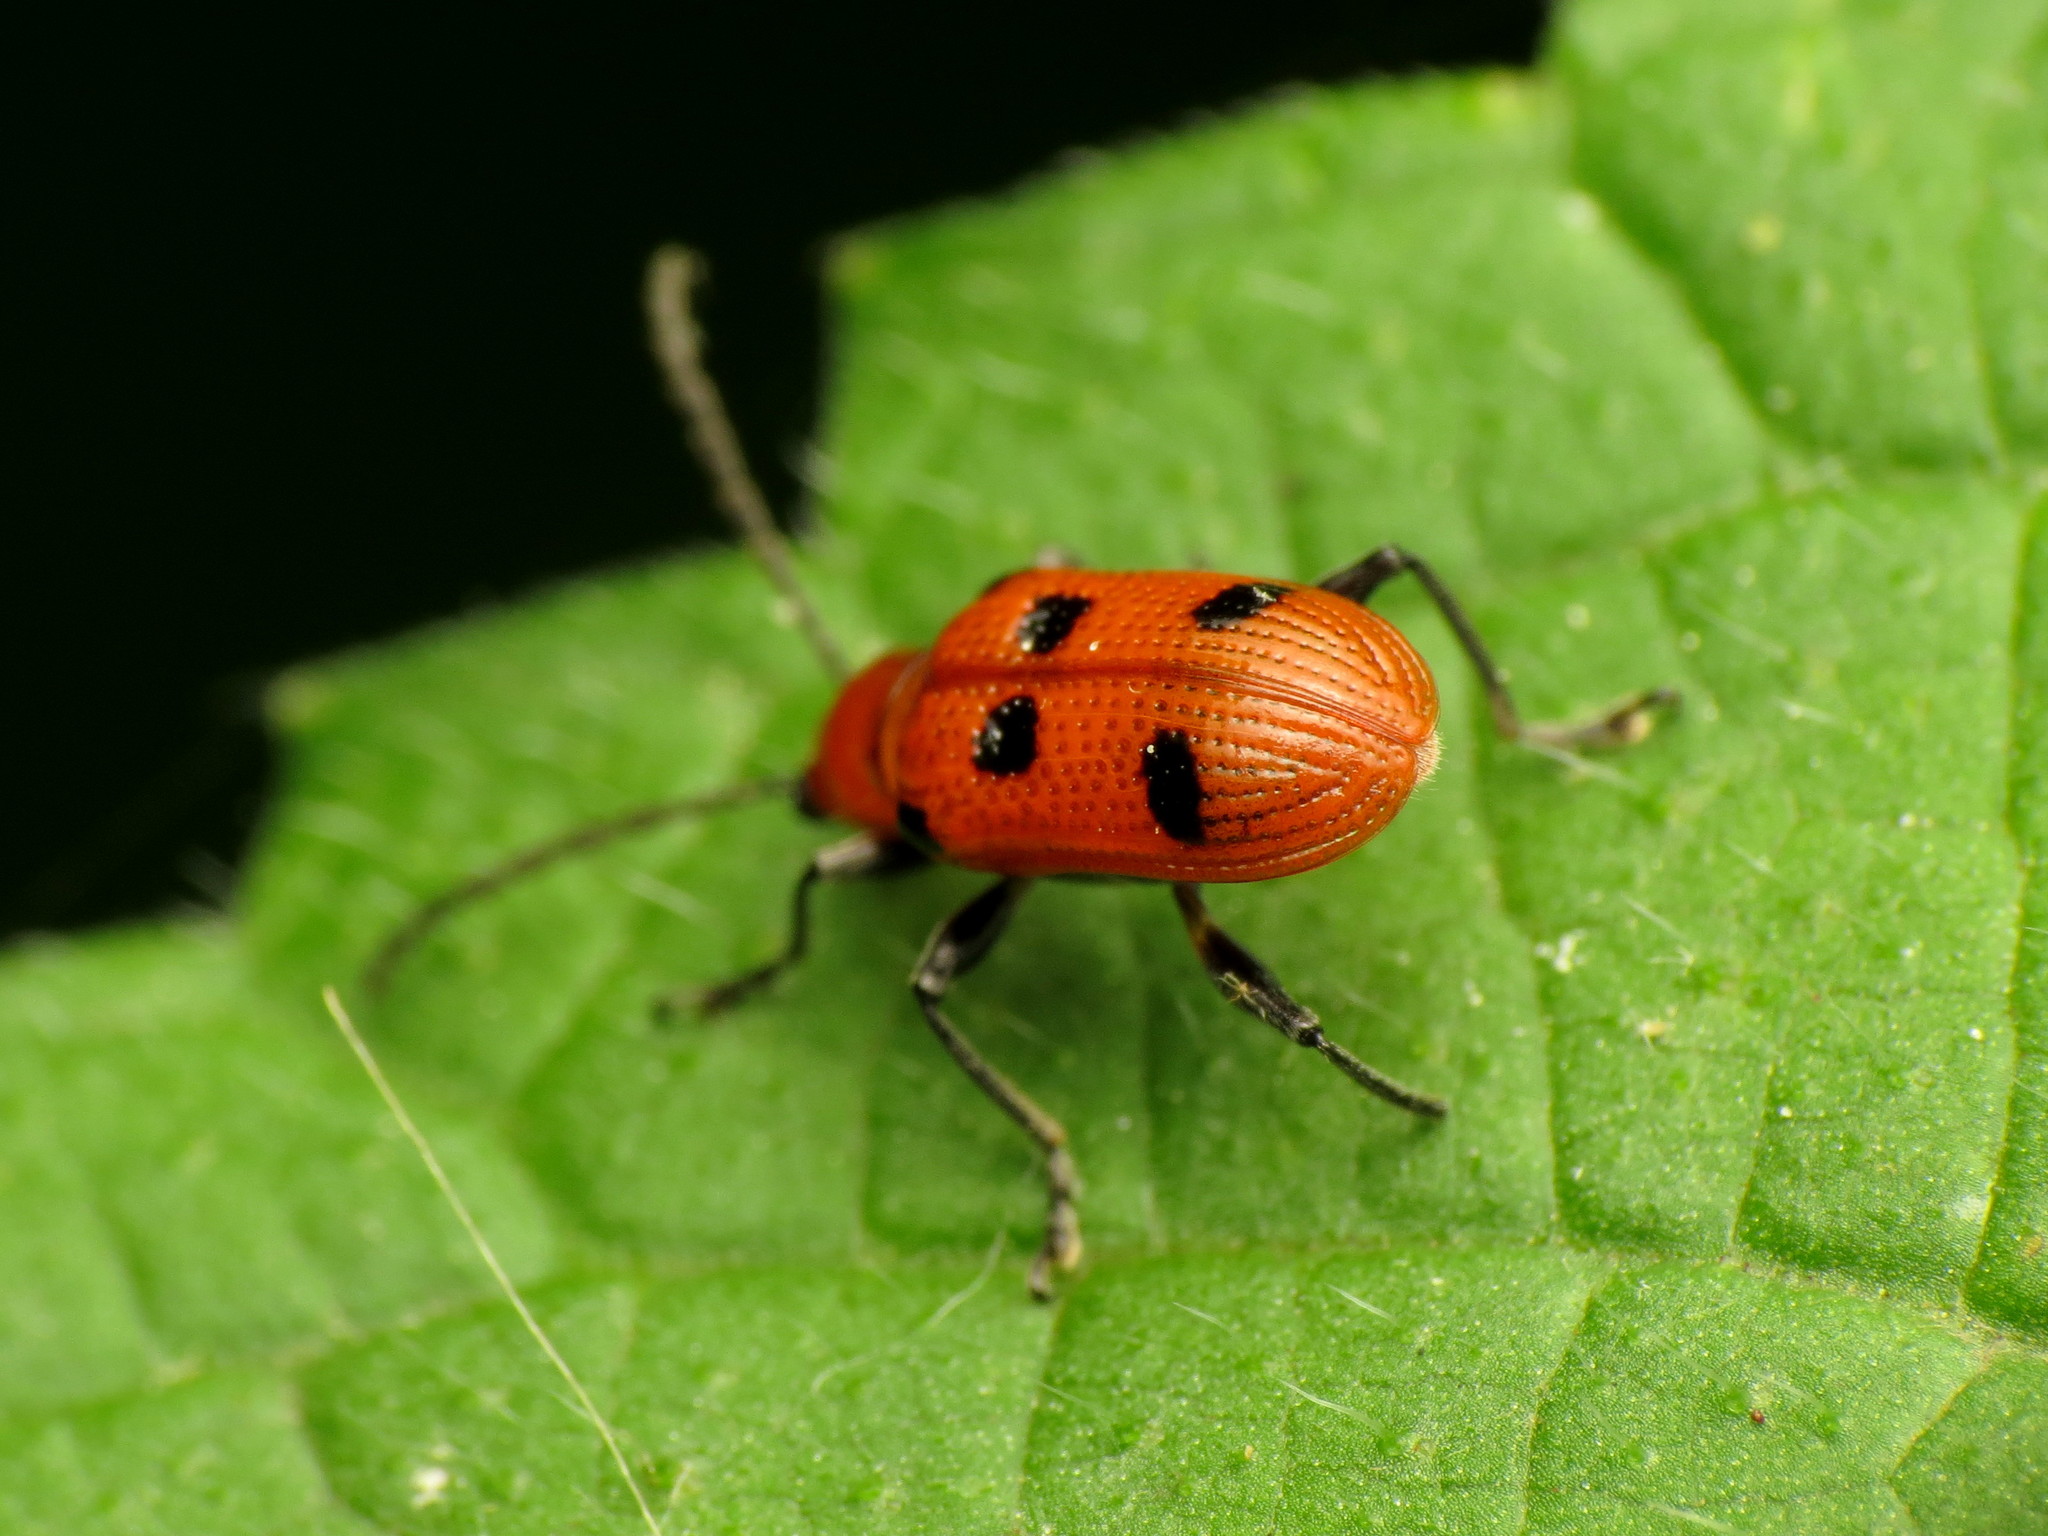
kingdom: Animalia
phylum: Arthropoda
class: Insecta
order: Coleoptera
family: Chrysomelidae
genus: Neolema
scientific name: Neolema sexpunctata
